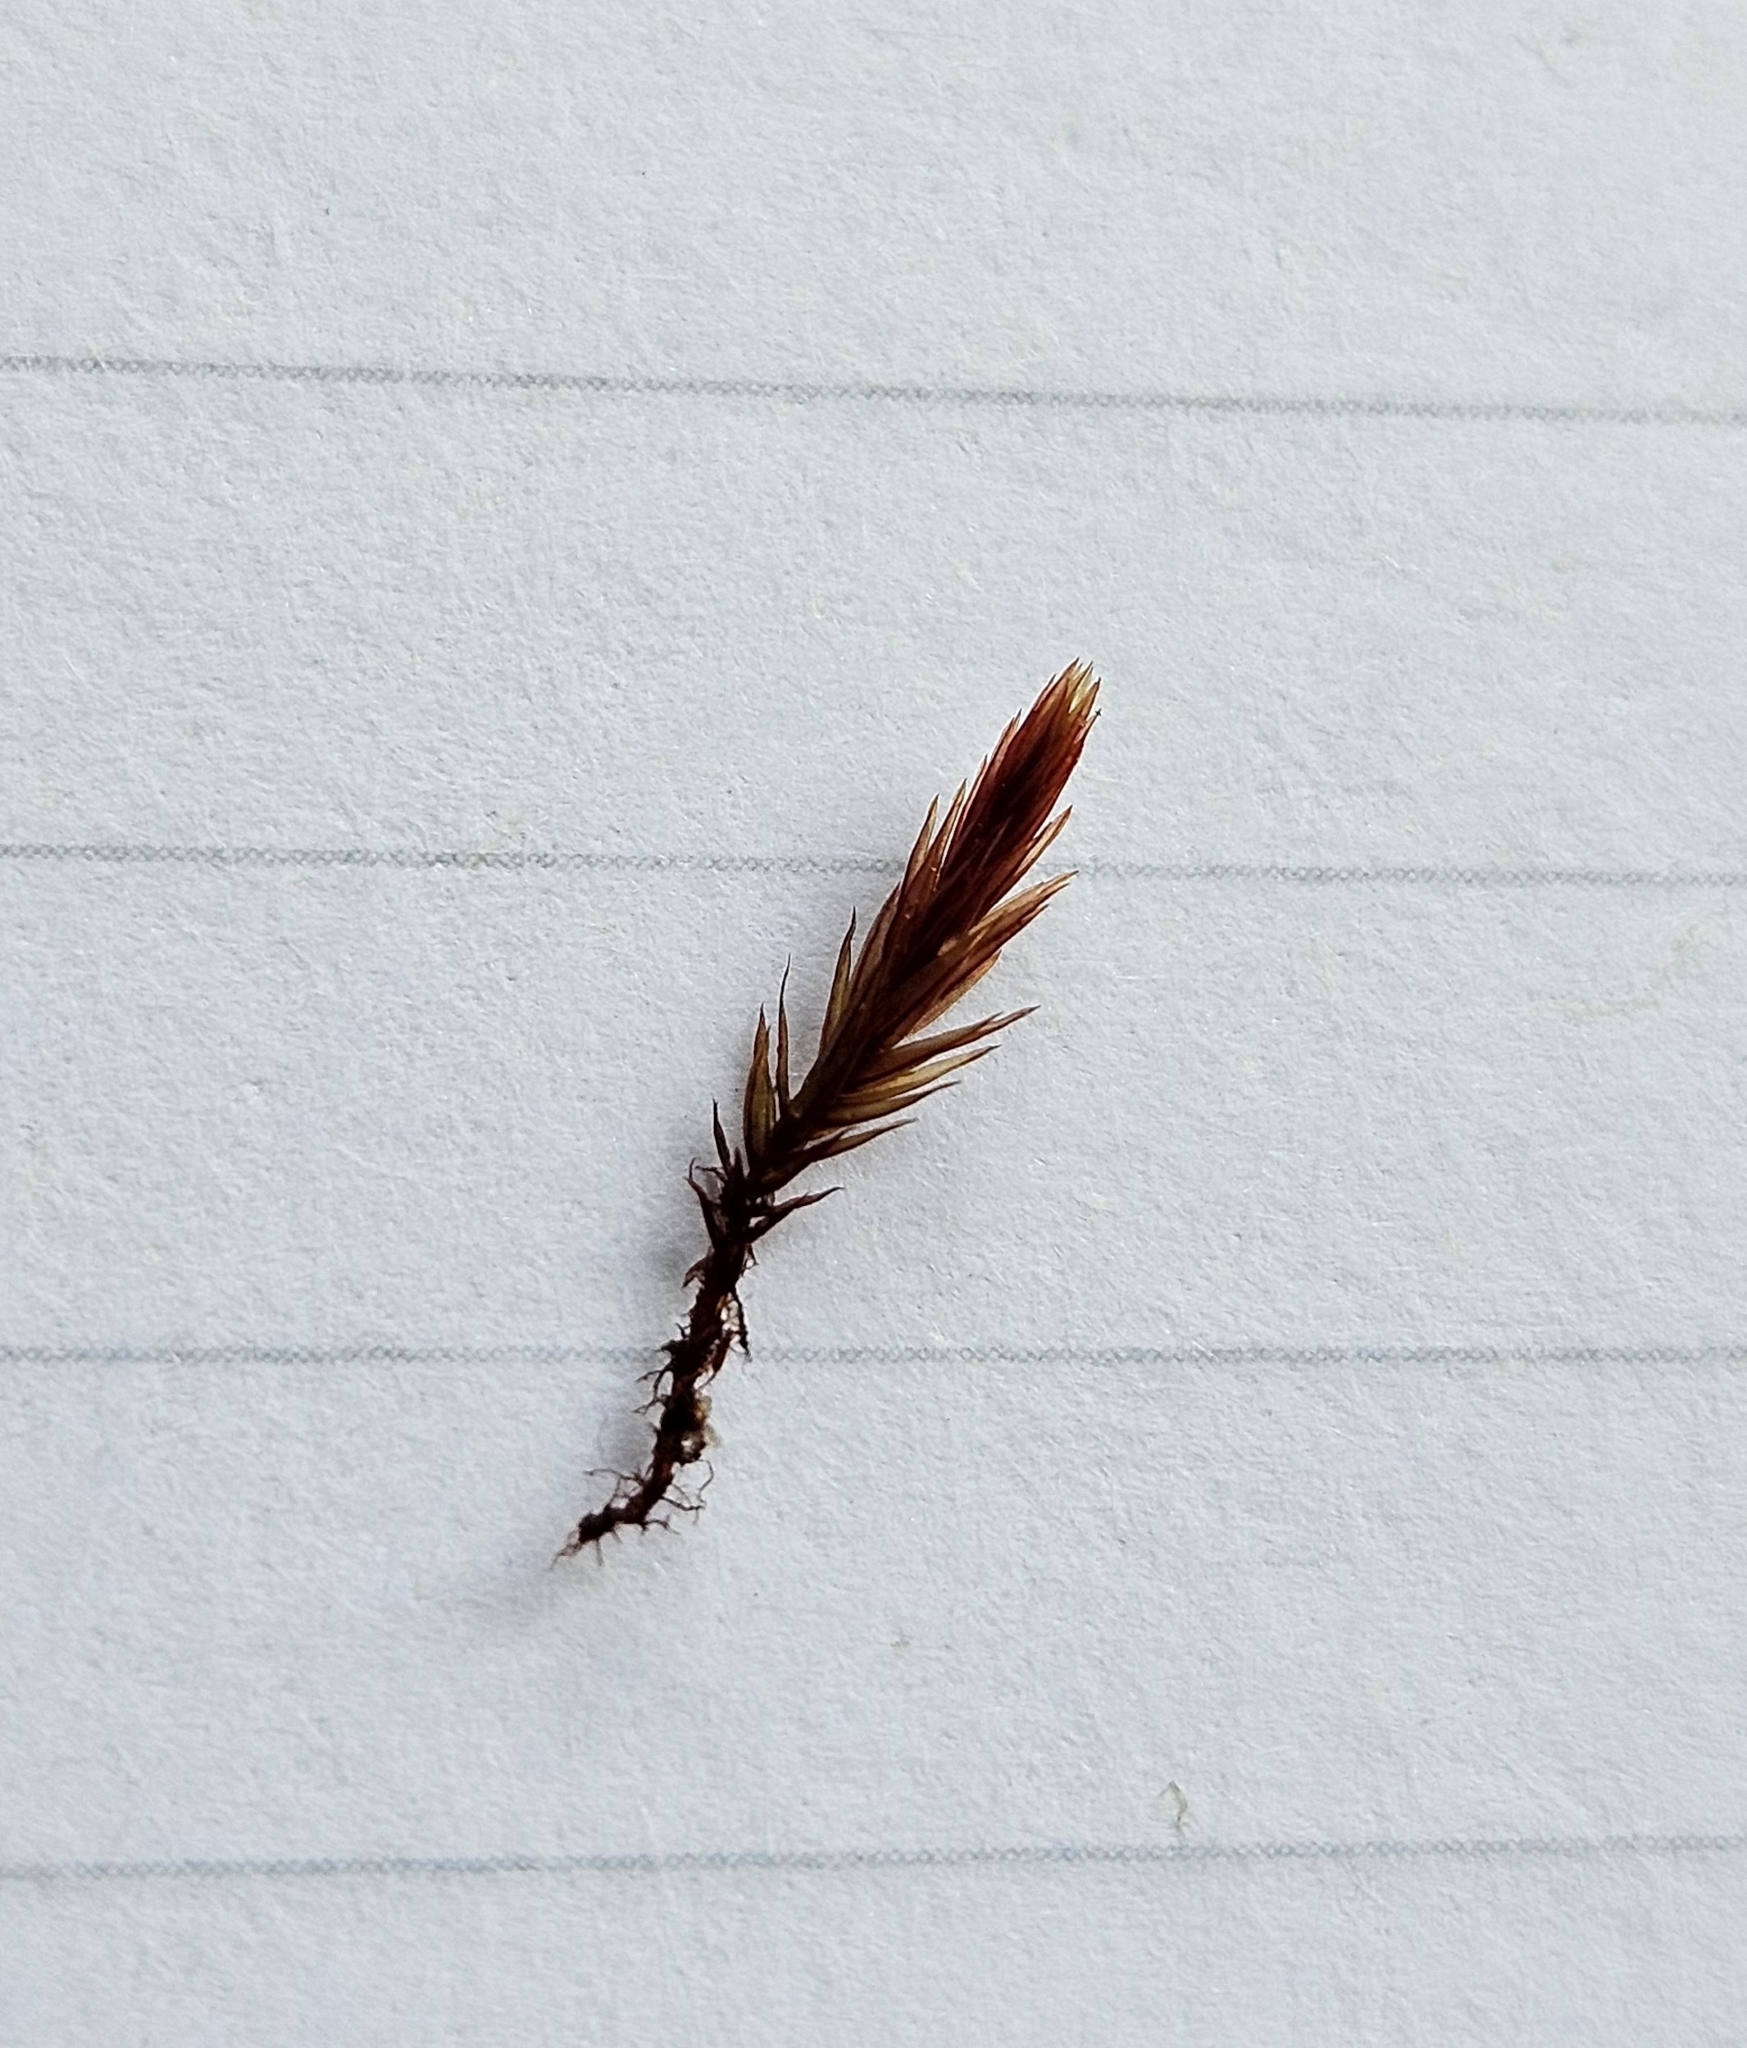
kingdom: Plantae
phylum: Bryophyta
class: Bryopsida
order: Bryales
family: Bryaceae
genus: Imbribryum
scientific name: Imbribryum alpinum
